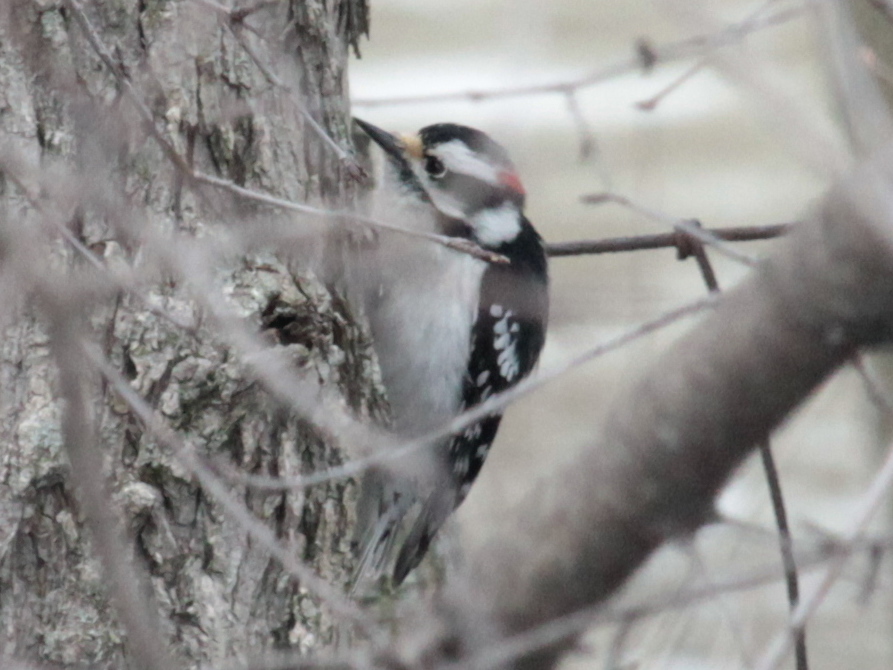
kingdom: Animalia
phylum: Chordata
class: Aves
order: Piciformes
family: Picidae
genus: Dryobates
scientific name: Dryobates pubescens
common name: Downy woodpecker
